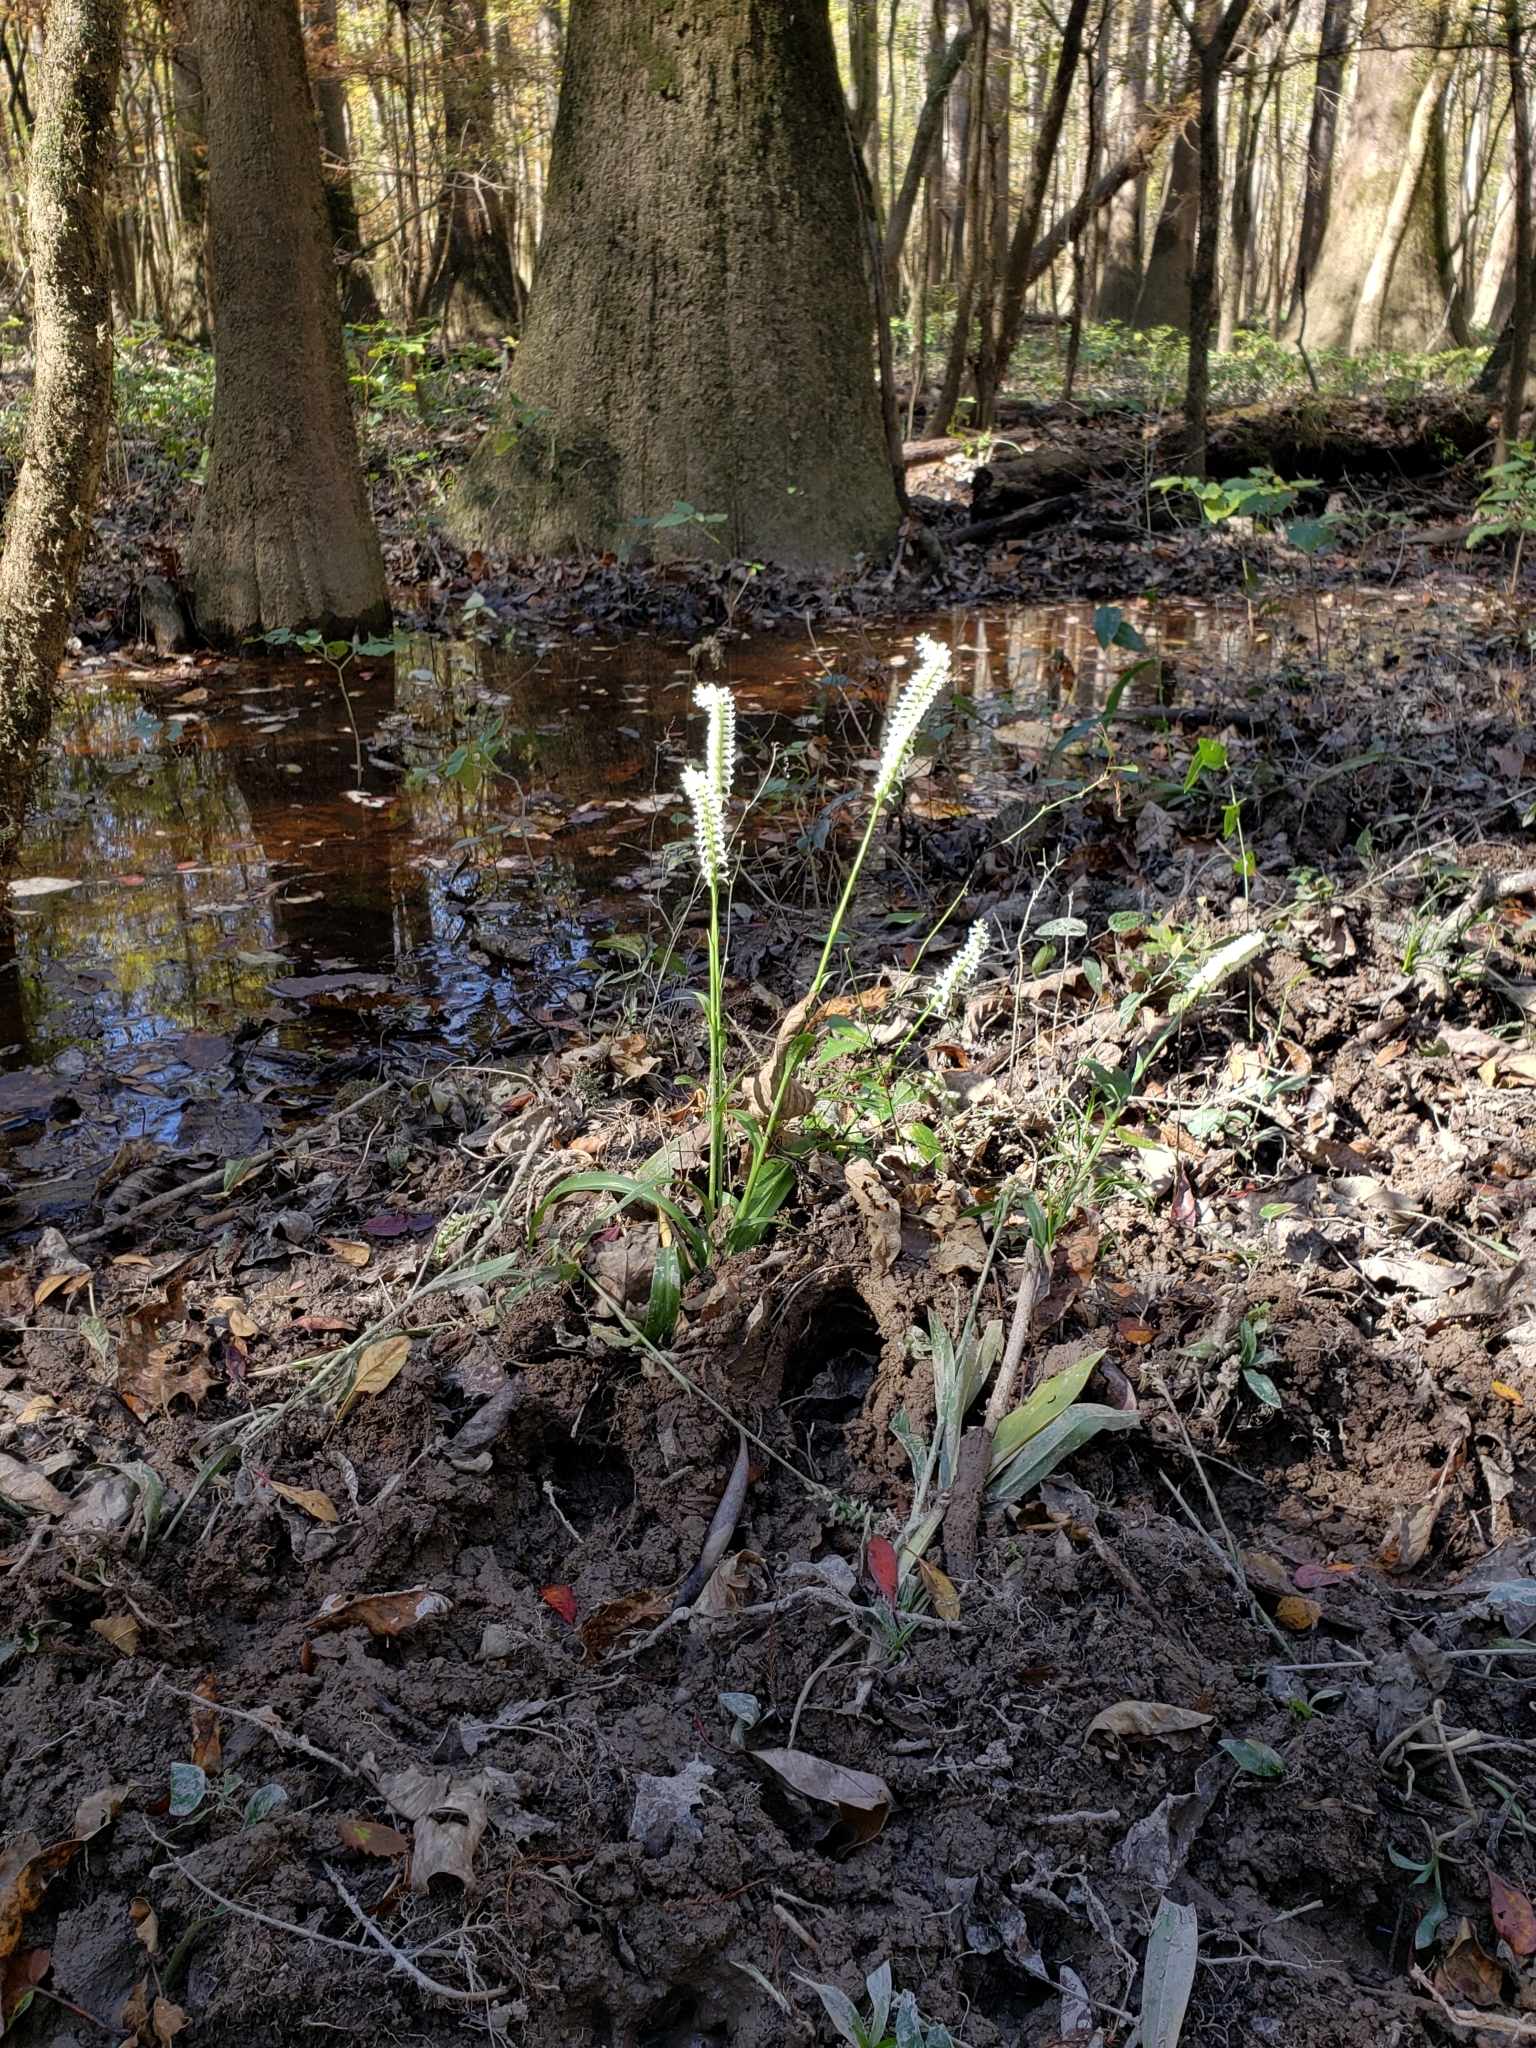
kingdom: Plantae
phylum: Tracheophyta
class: Liliopsida
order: Asparagales
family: Orchidaceae
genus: Spiranthes
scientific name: Spiranthes odorata
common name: Marsh ladies'-tresses
